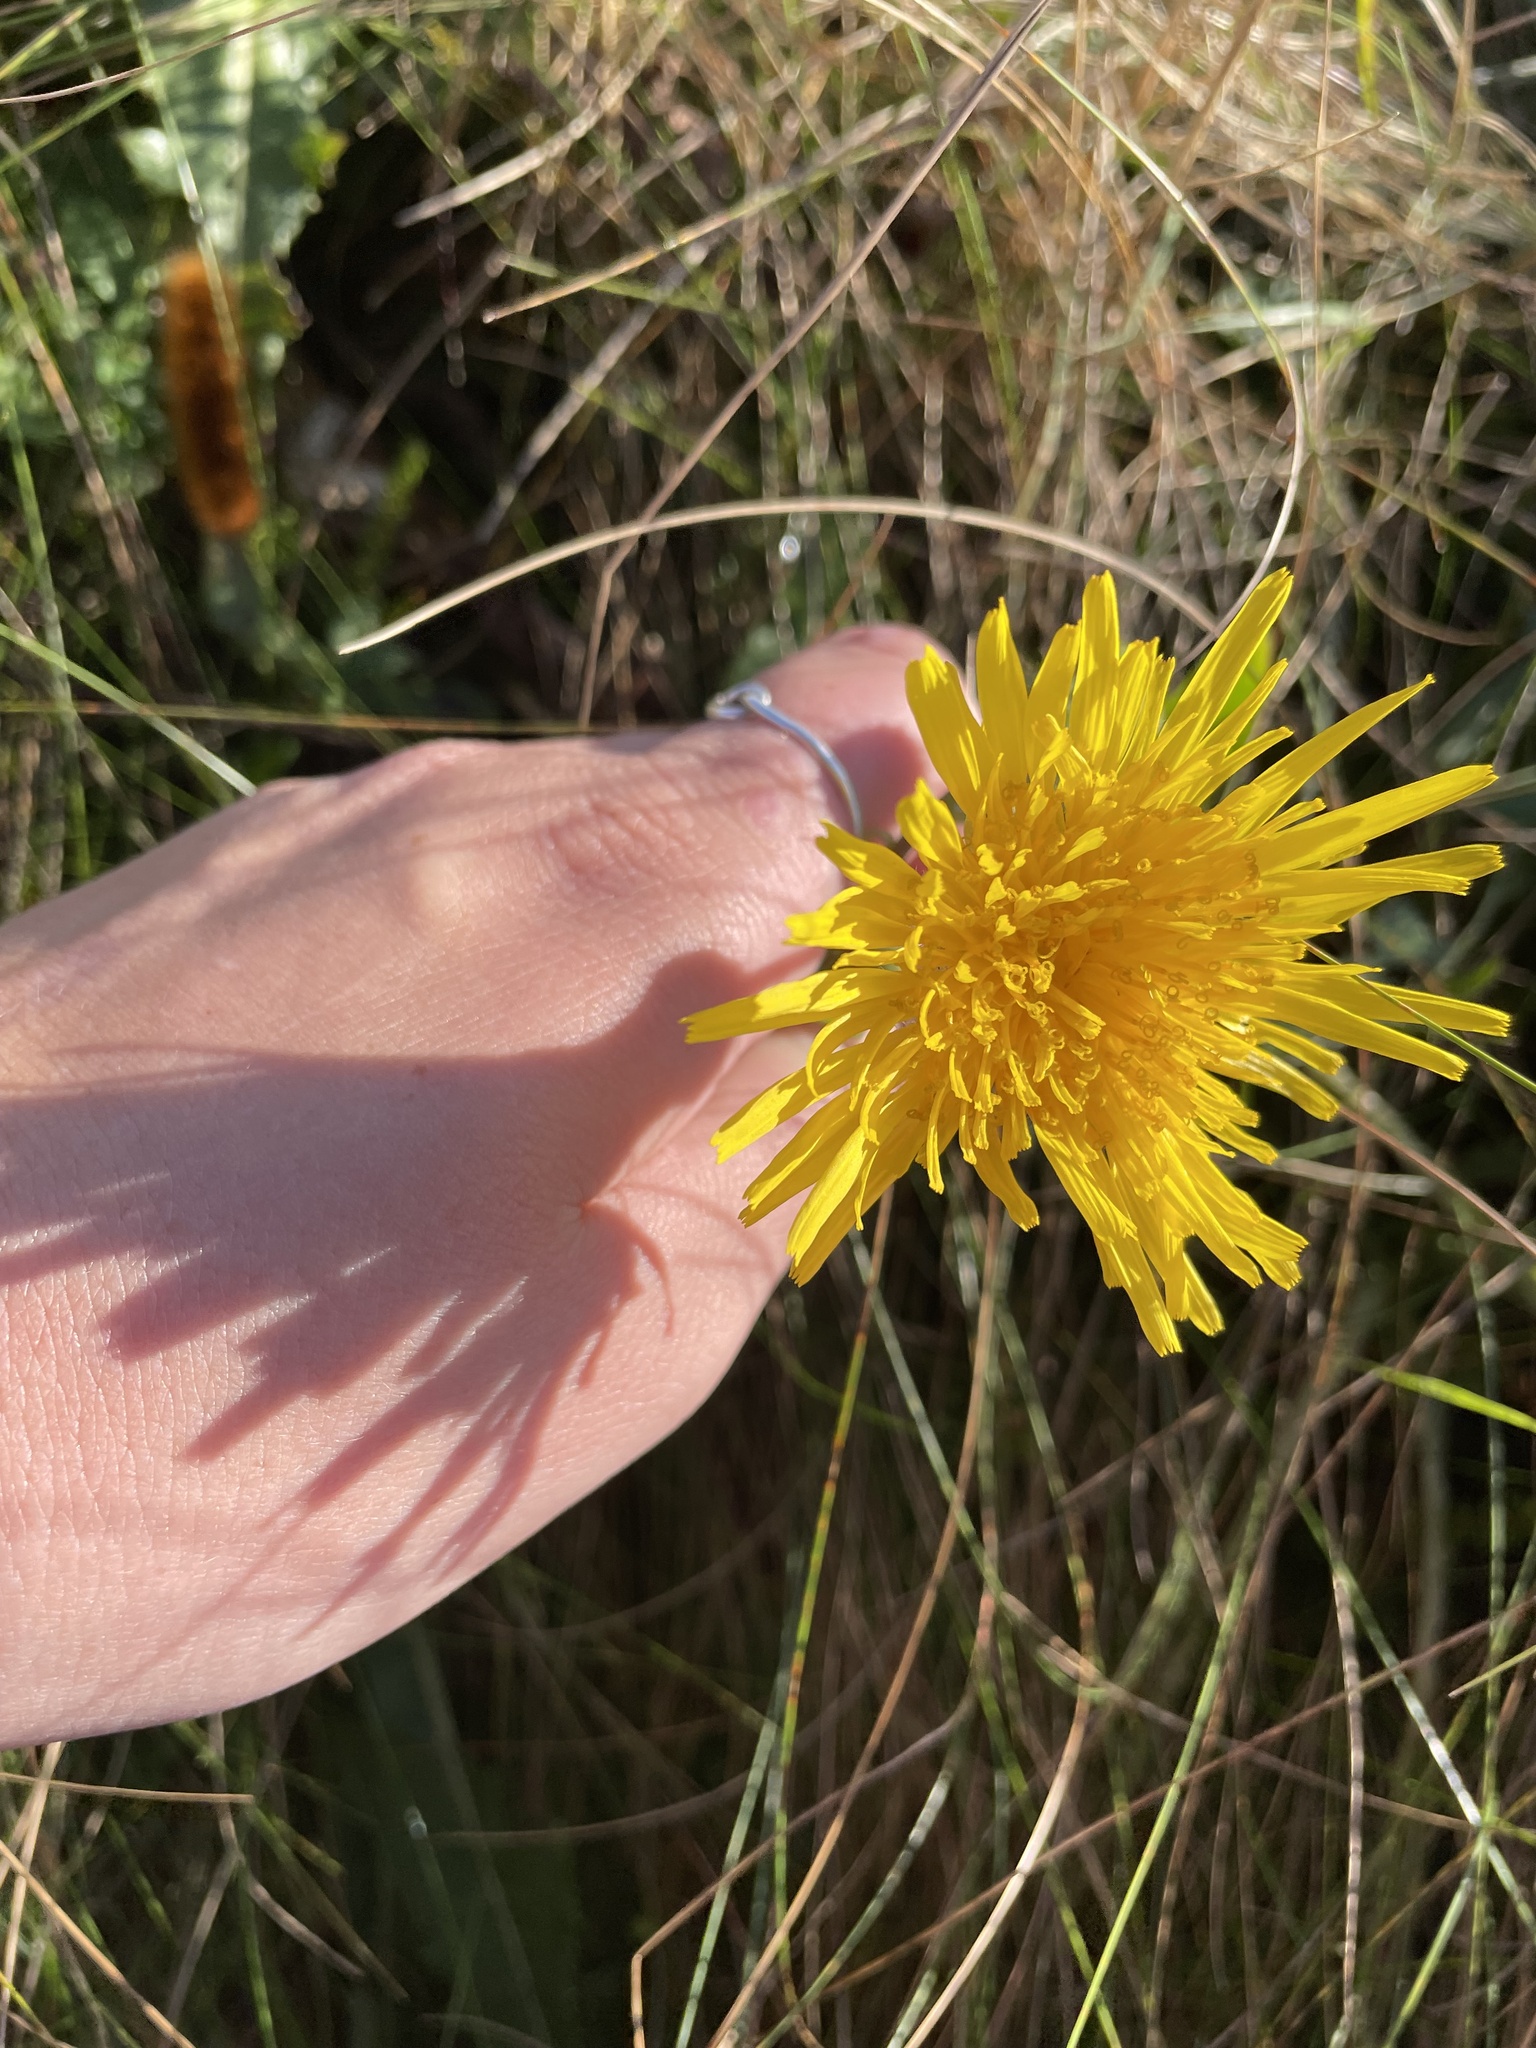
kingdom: Plantae
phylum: Tracheophyta
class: Magnoliopsida
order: Asterales
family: Asteraceae
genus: Sonchus
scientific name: Sonchus arvensis
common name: Perennial sow-thistle
